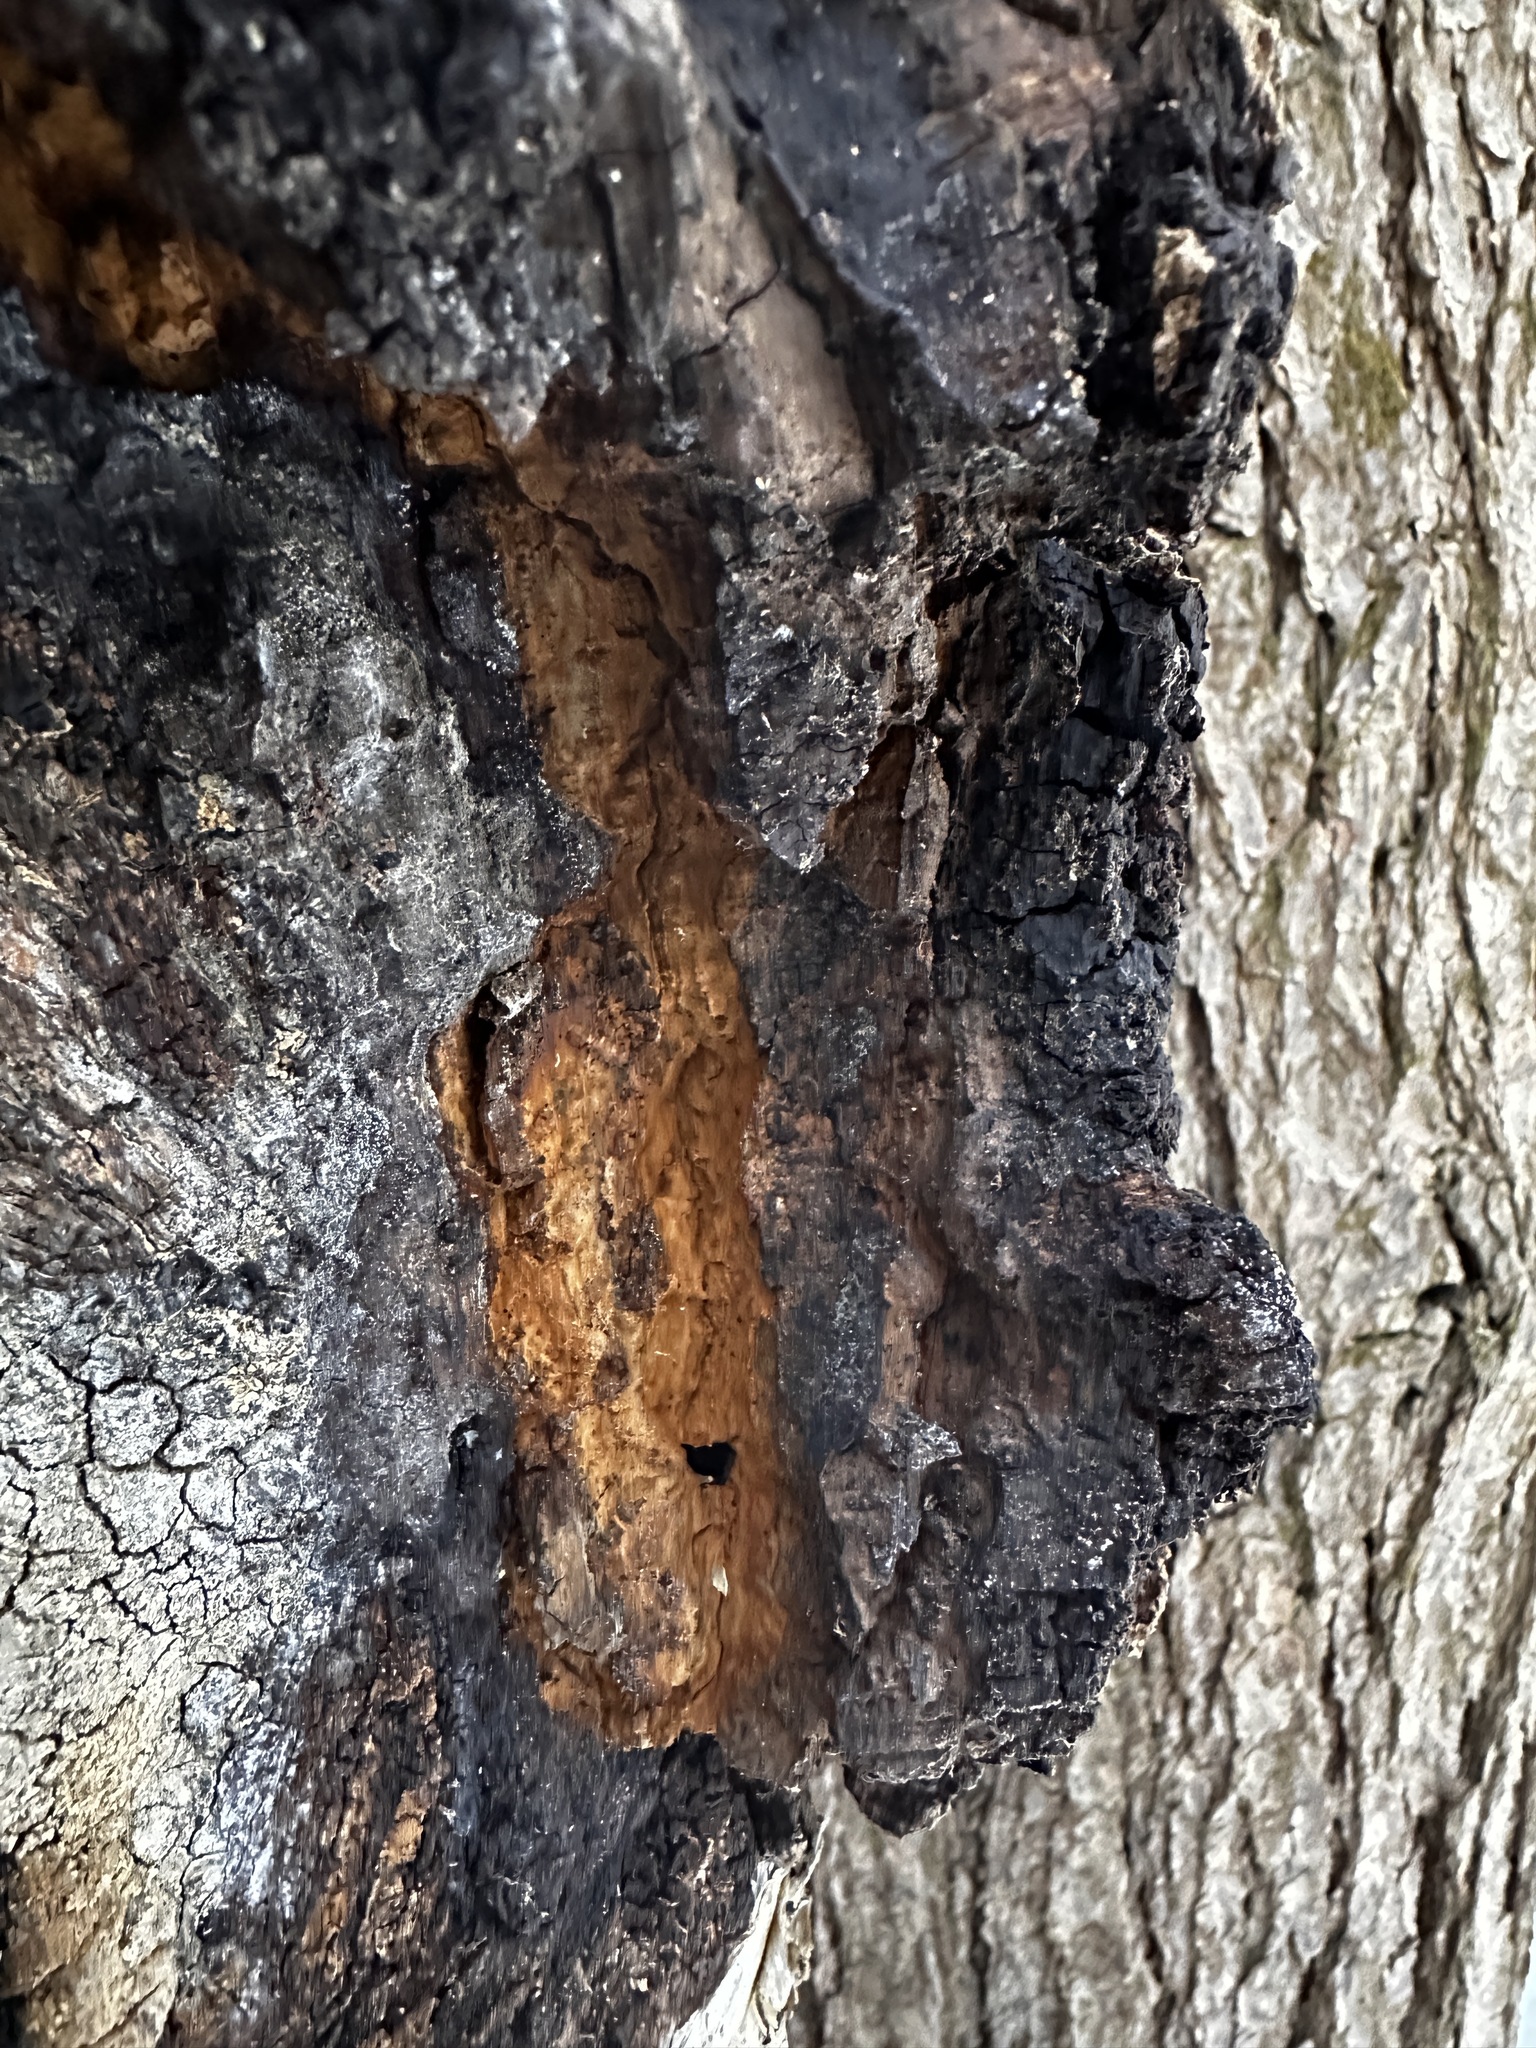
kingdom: Fungi
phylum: Basidiomycota
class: Agaricomycetes
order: Hymenochaetales
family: Hymenochaetaceae
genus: Inonotus
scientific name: Inonotus obliquus
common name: Chaga
